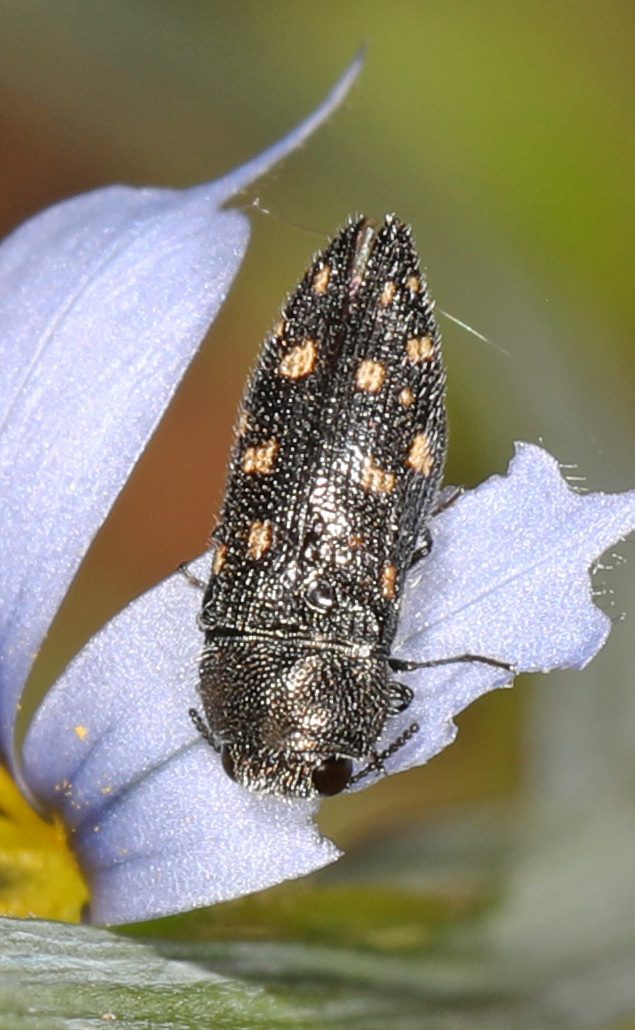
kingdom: Animalia
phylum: Arthropoda
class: Insecta
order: Coleoptera
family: Buprestidae
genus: Acmaeodera
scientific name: Acmaeodera tubulus
